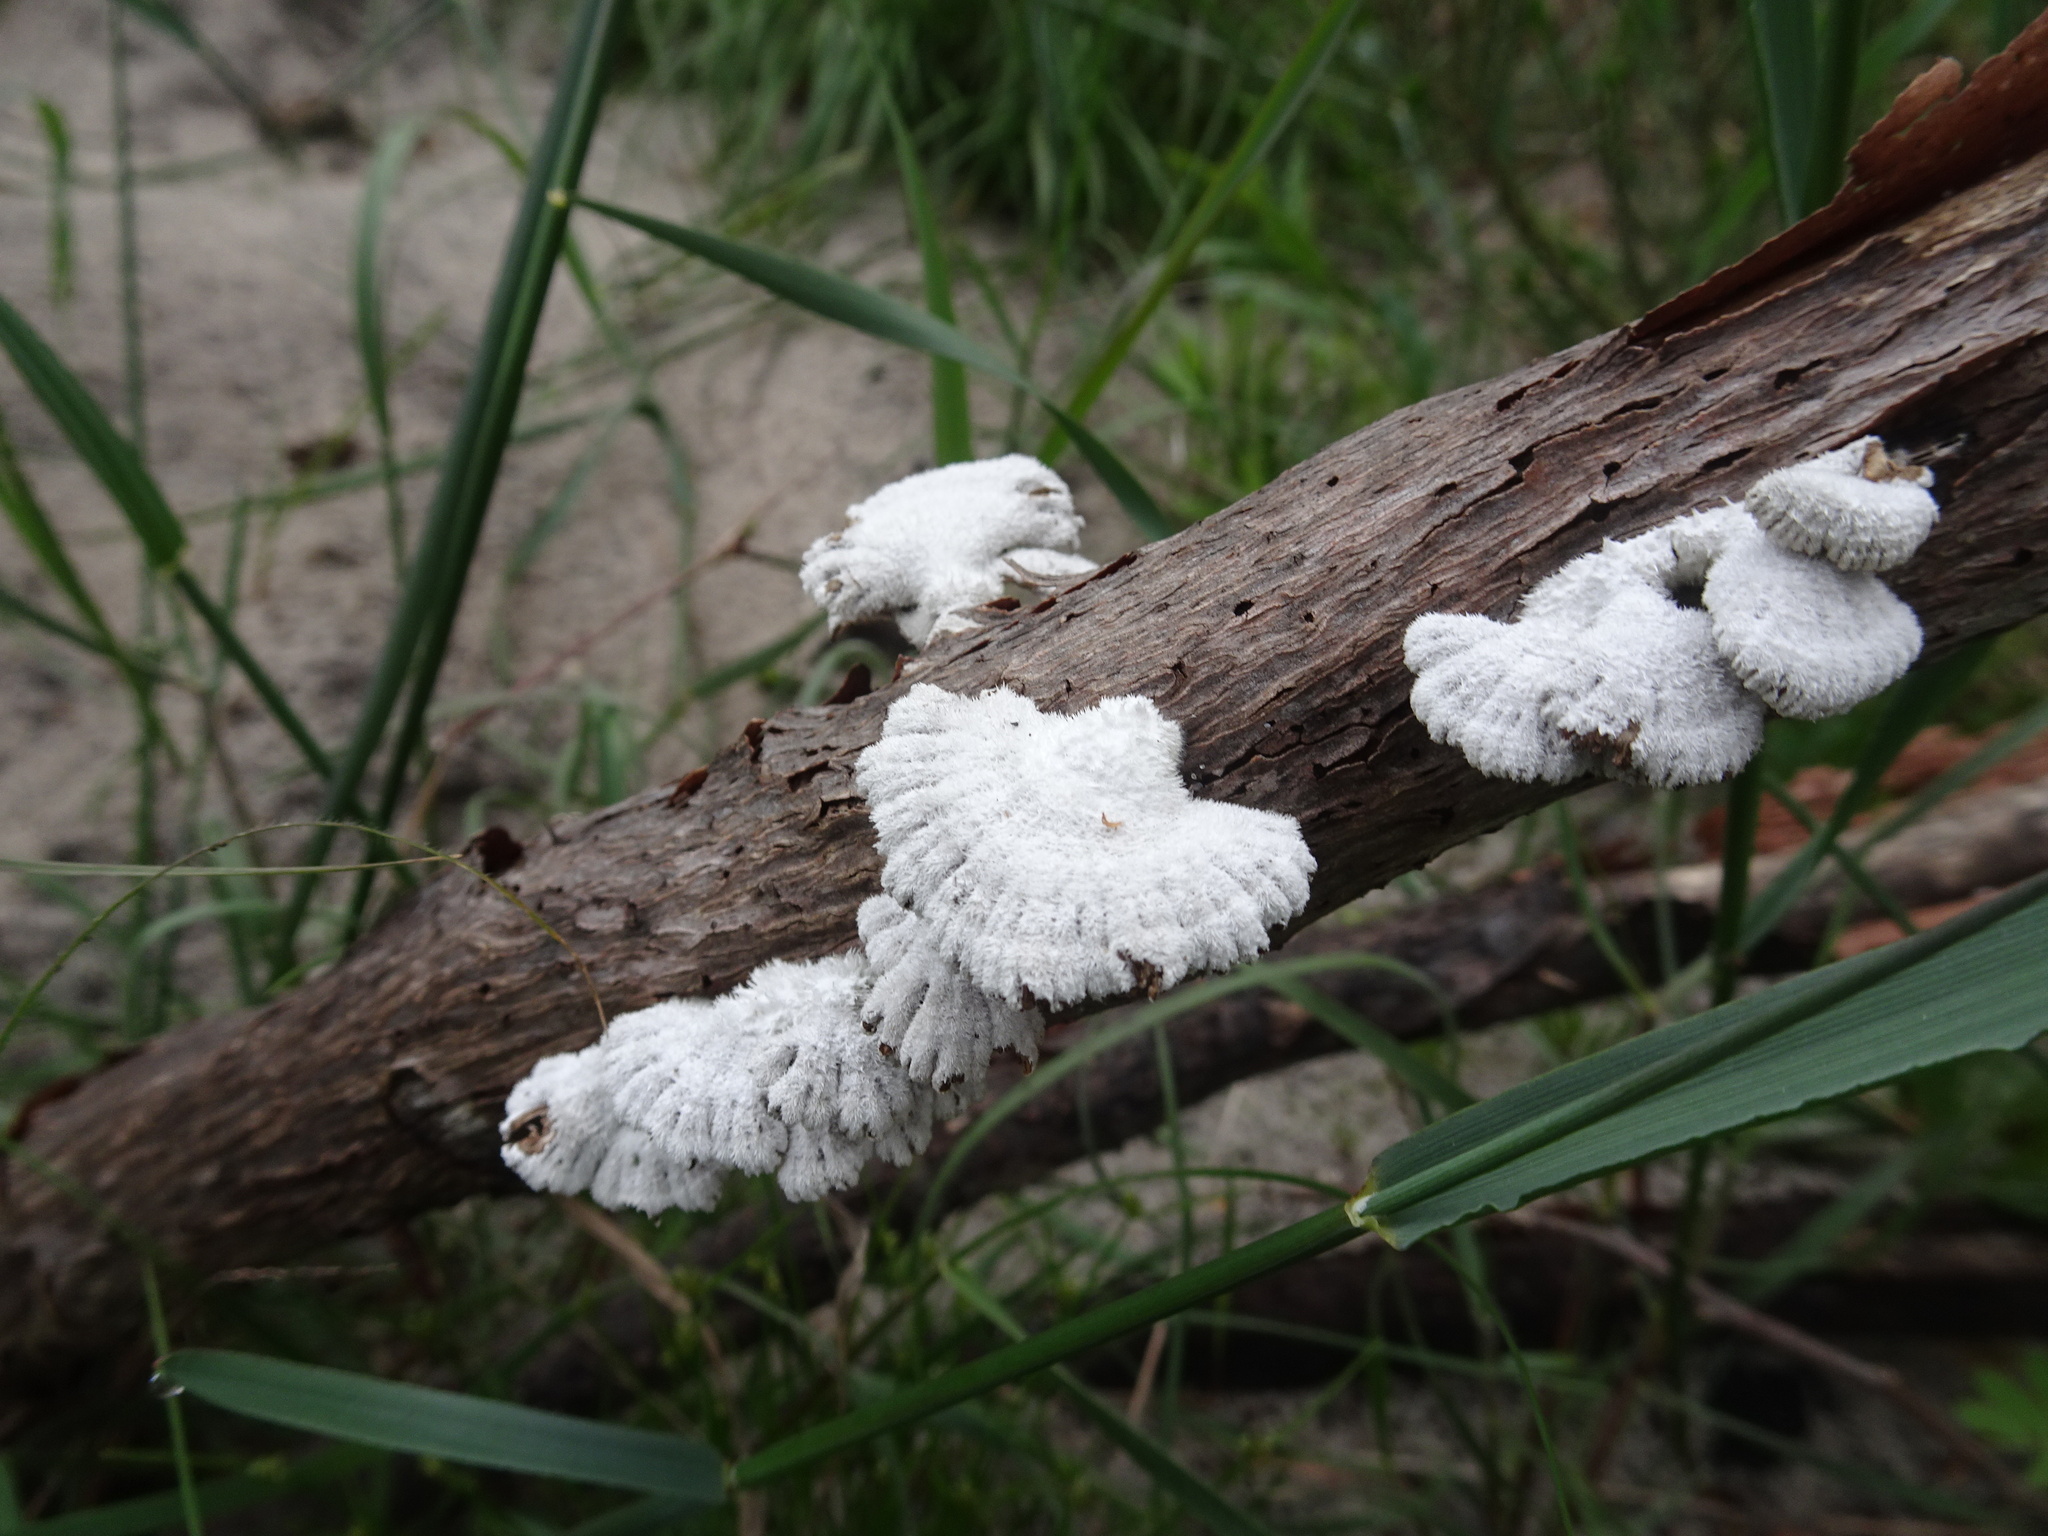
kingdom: Fungi
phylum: Basidiomycota
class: Agaricomycetes
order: Agaricales
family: Schizophyllaceae
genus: Schizophyllum
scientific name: Schizophyllum commune
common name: Common porecrust
